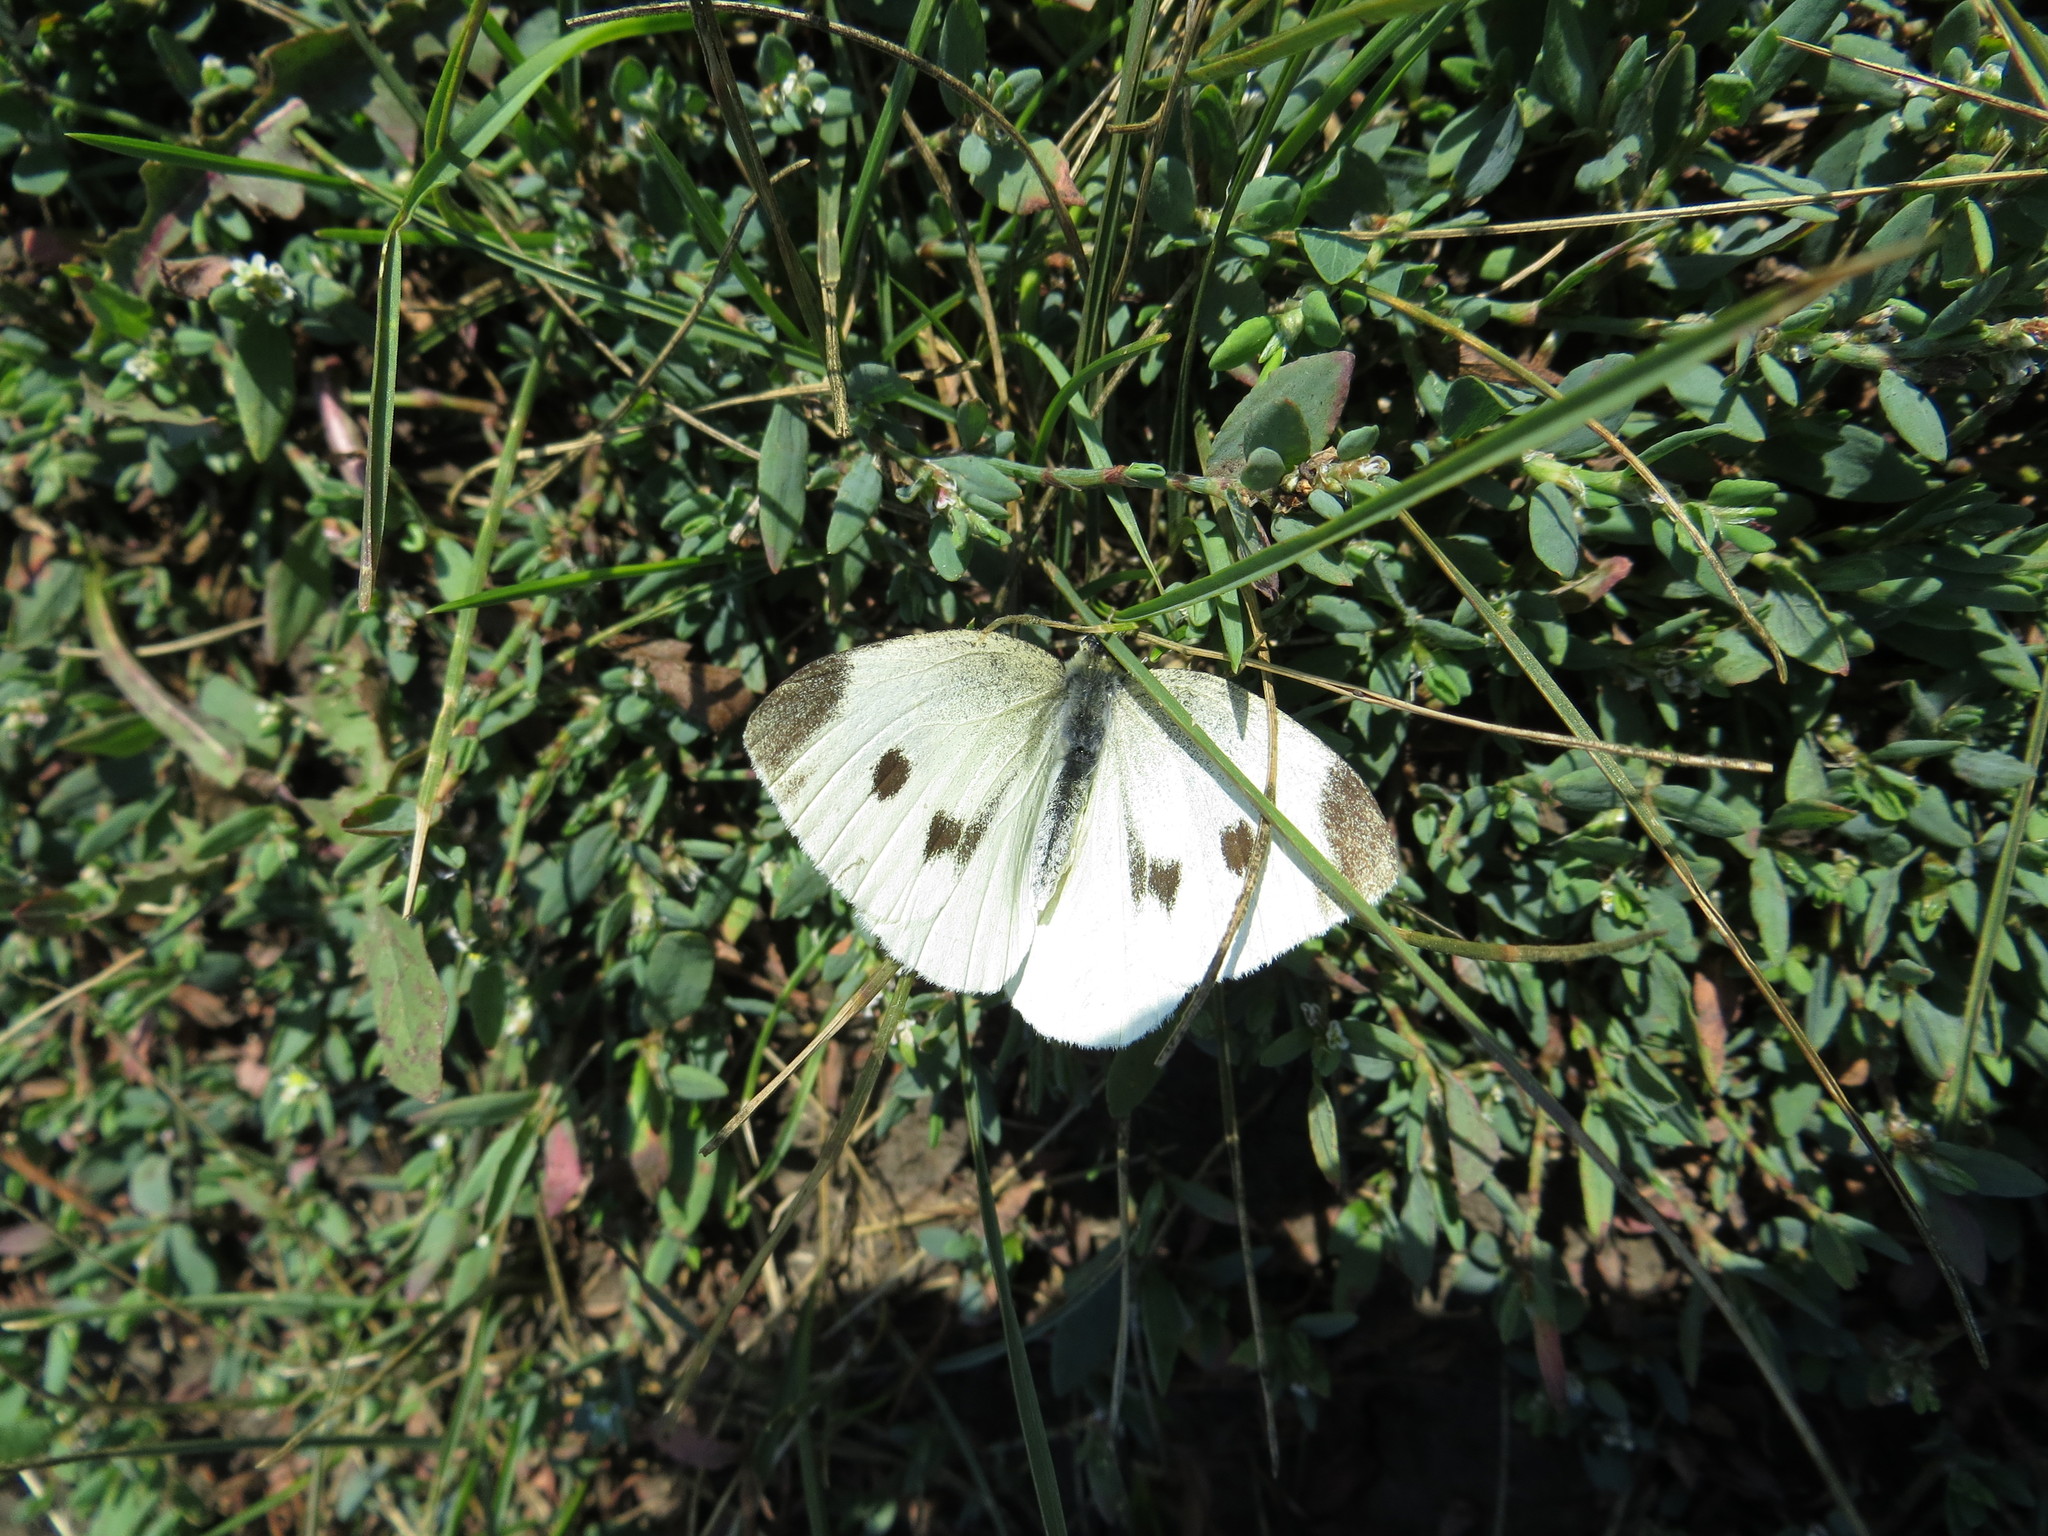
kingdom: Animalia
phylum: Arthropoda
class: Insecta
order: Lepidoptera
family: Pieridae
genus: Pieris
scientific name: Pieris rapae
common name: Small white
